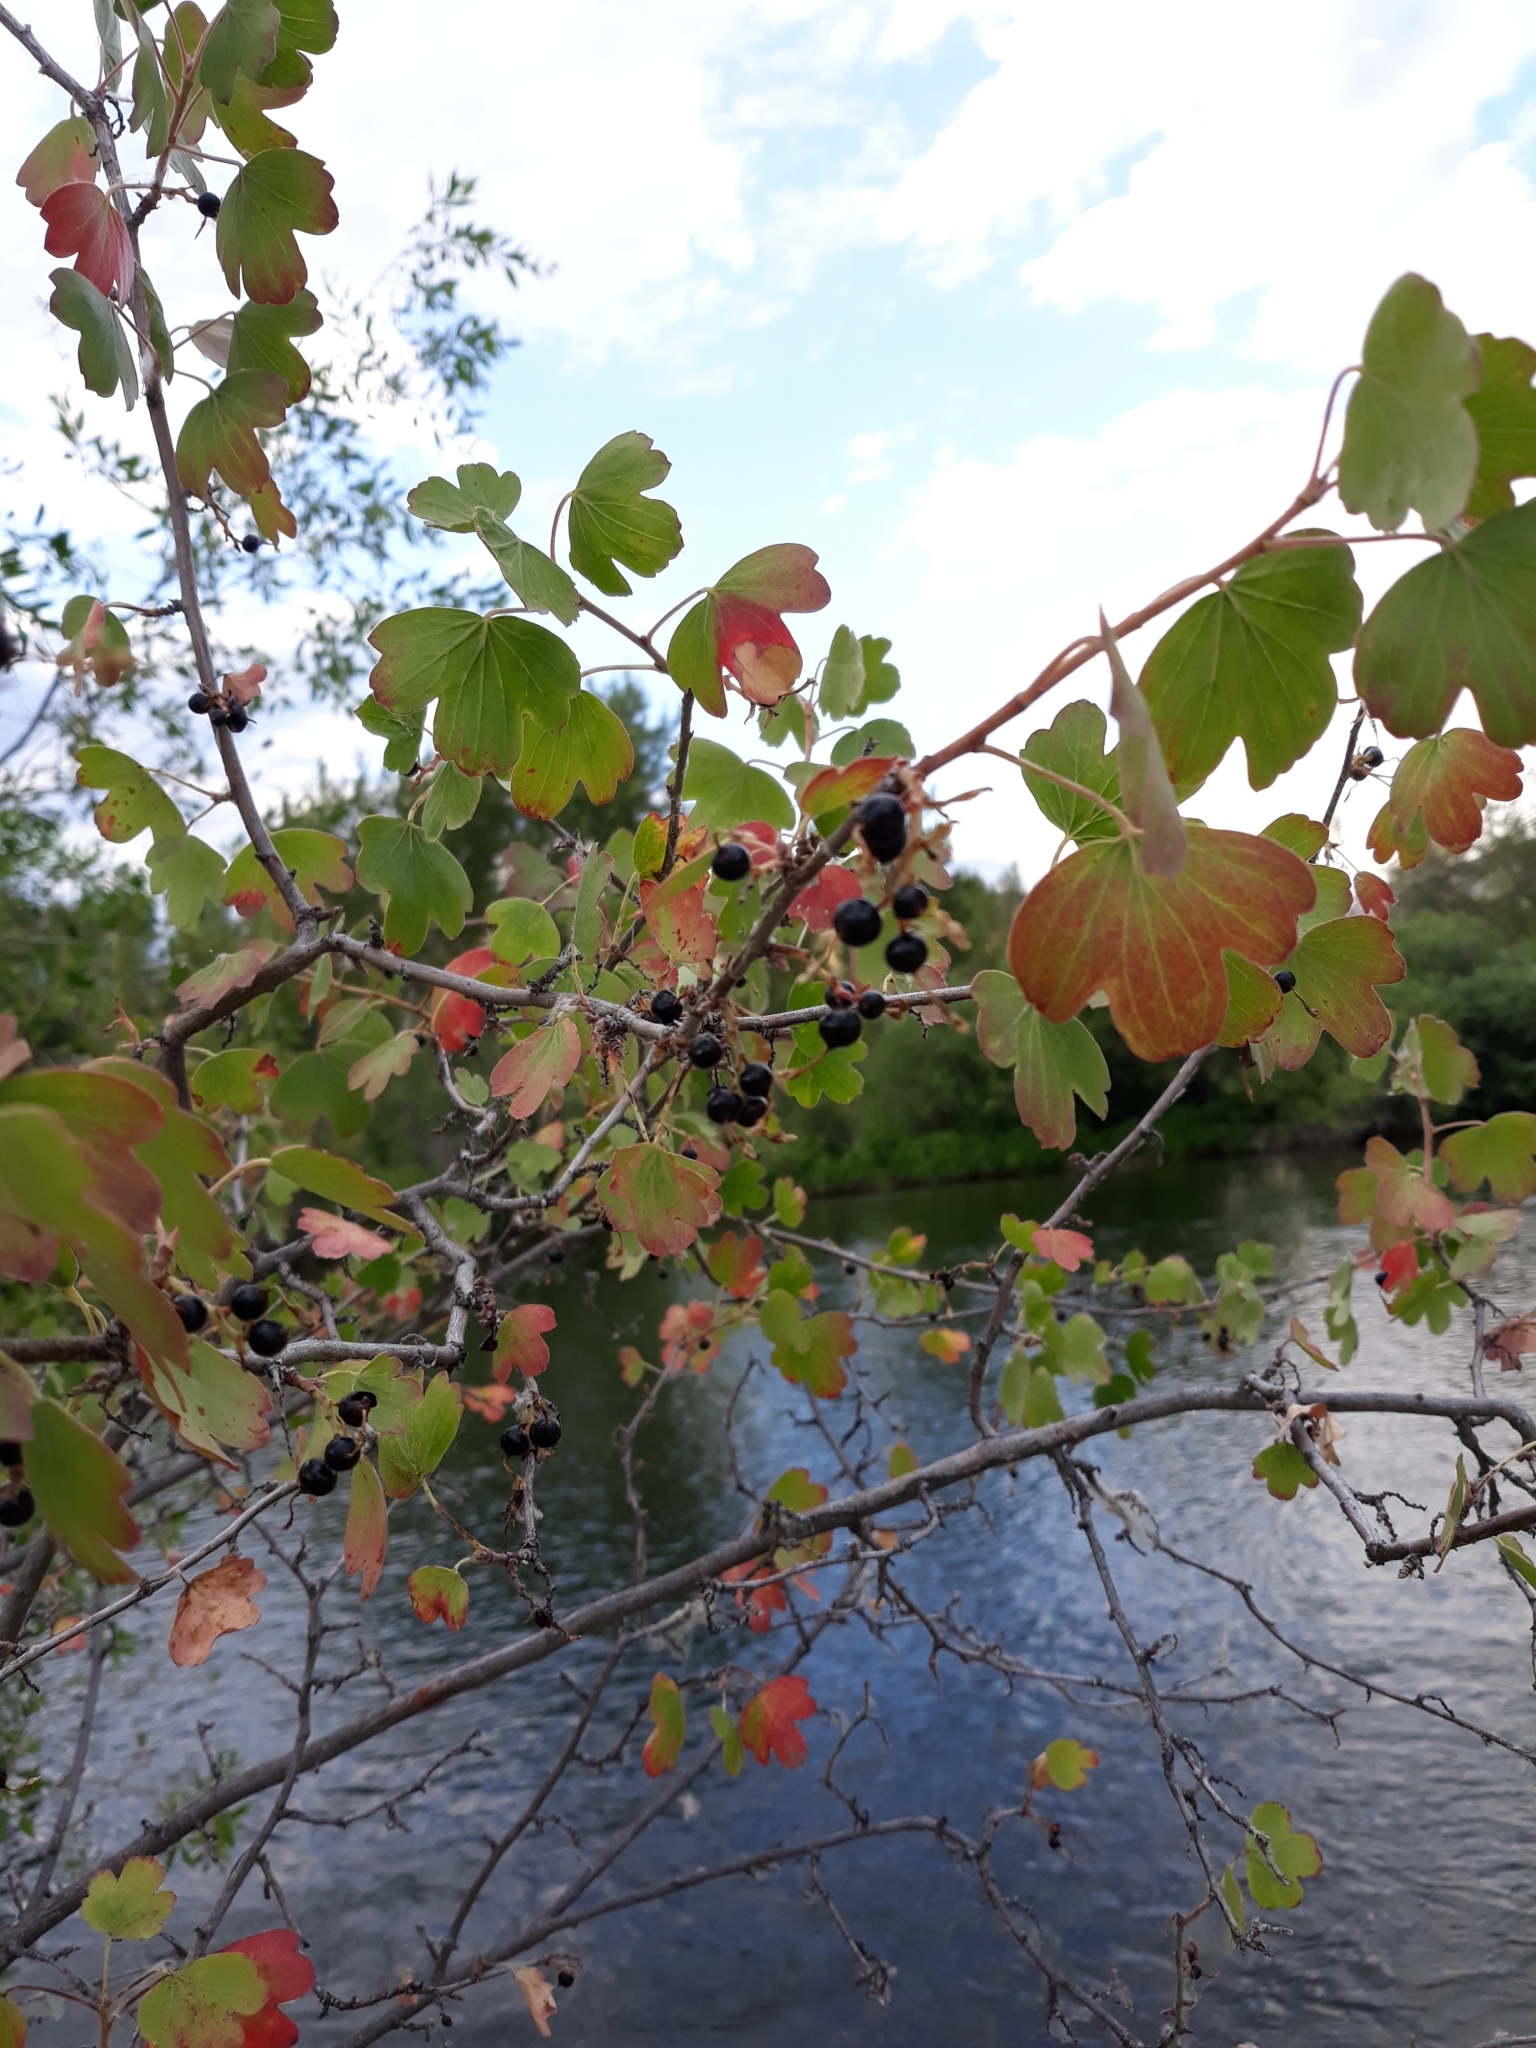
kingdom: Plantae
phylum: Tracheophyta
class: Magnoliopsida
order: Saxifragales
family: Grossulariaceae
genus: Ribes
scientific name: Ribes aureum
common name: Golden currant
